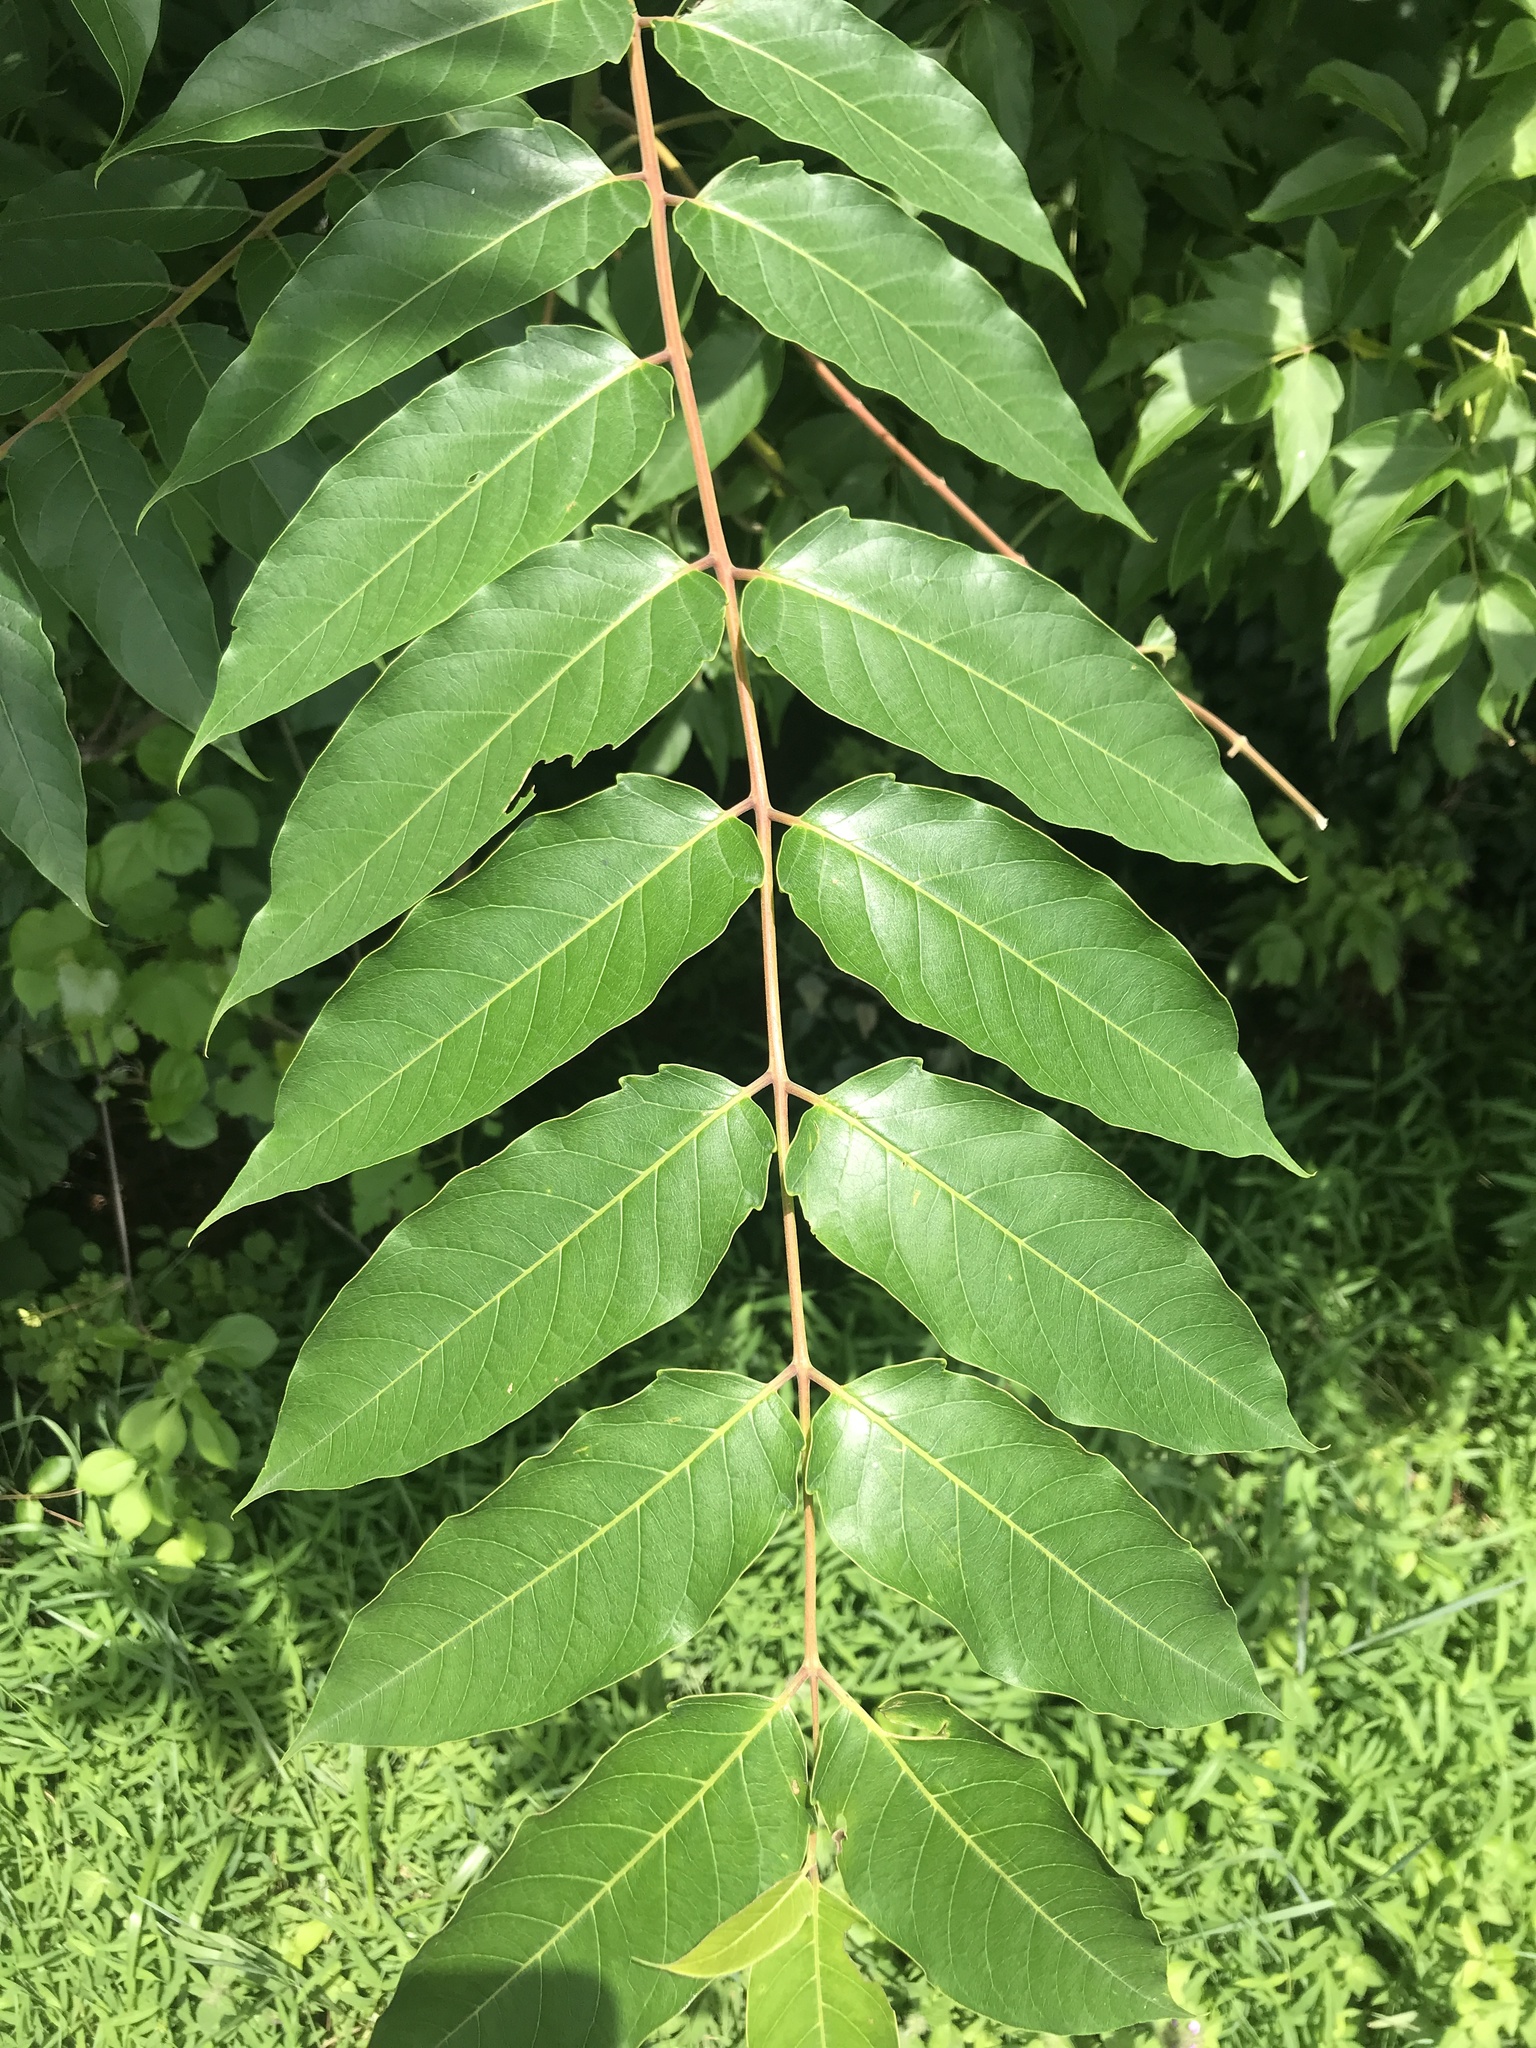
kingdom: Plantae
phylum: Tracheophyta
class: Magnoliopsida
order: Sapindales
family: Simaroubaceae
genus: Ailanthus
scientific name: Ailanthus altissima
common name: Tree-of-heaven
